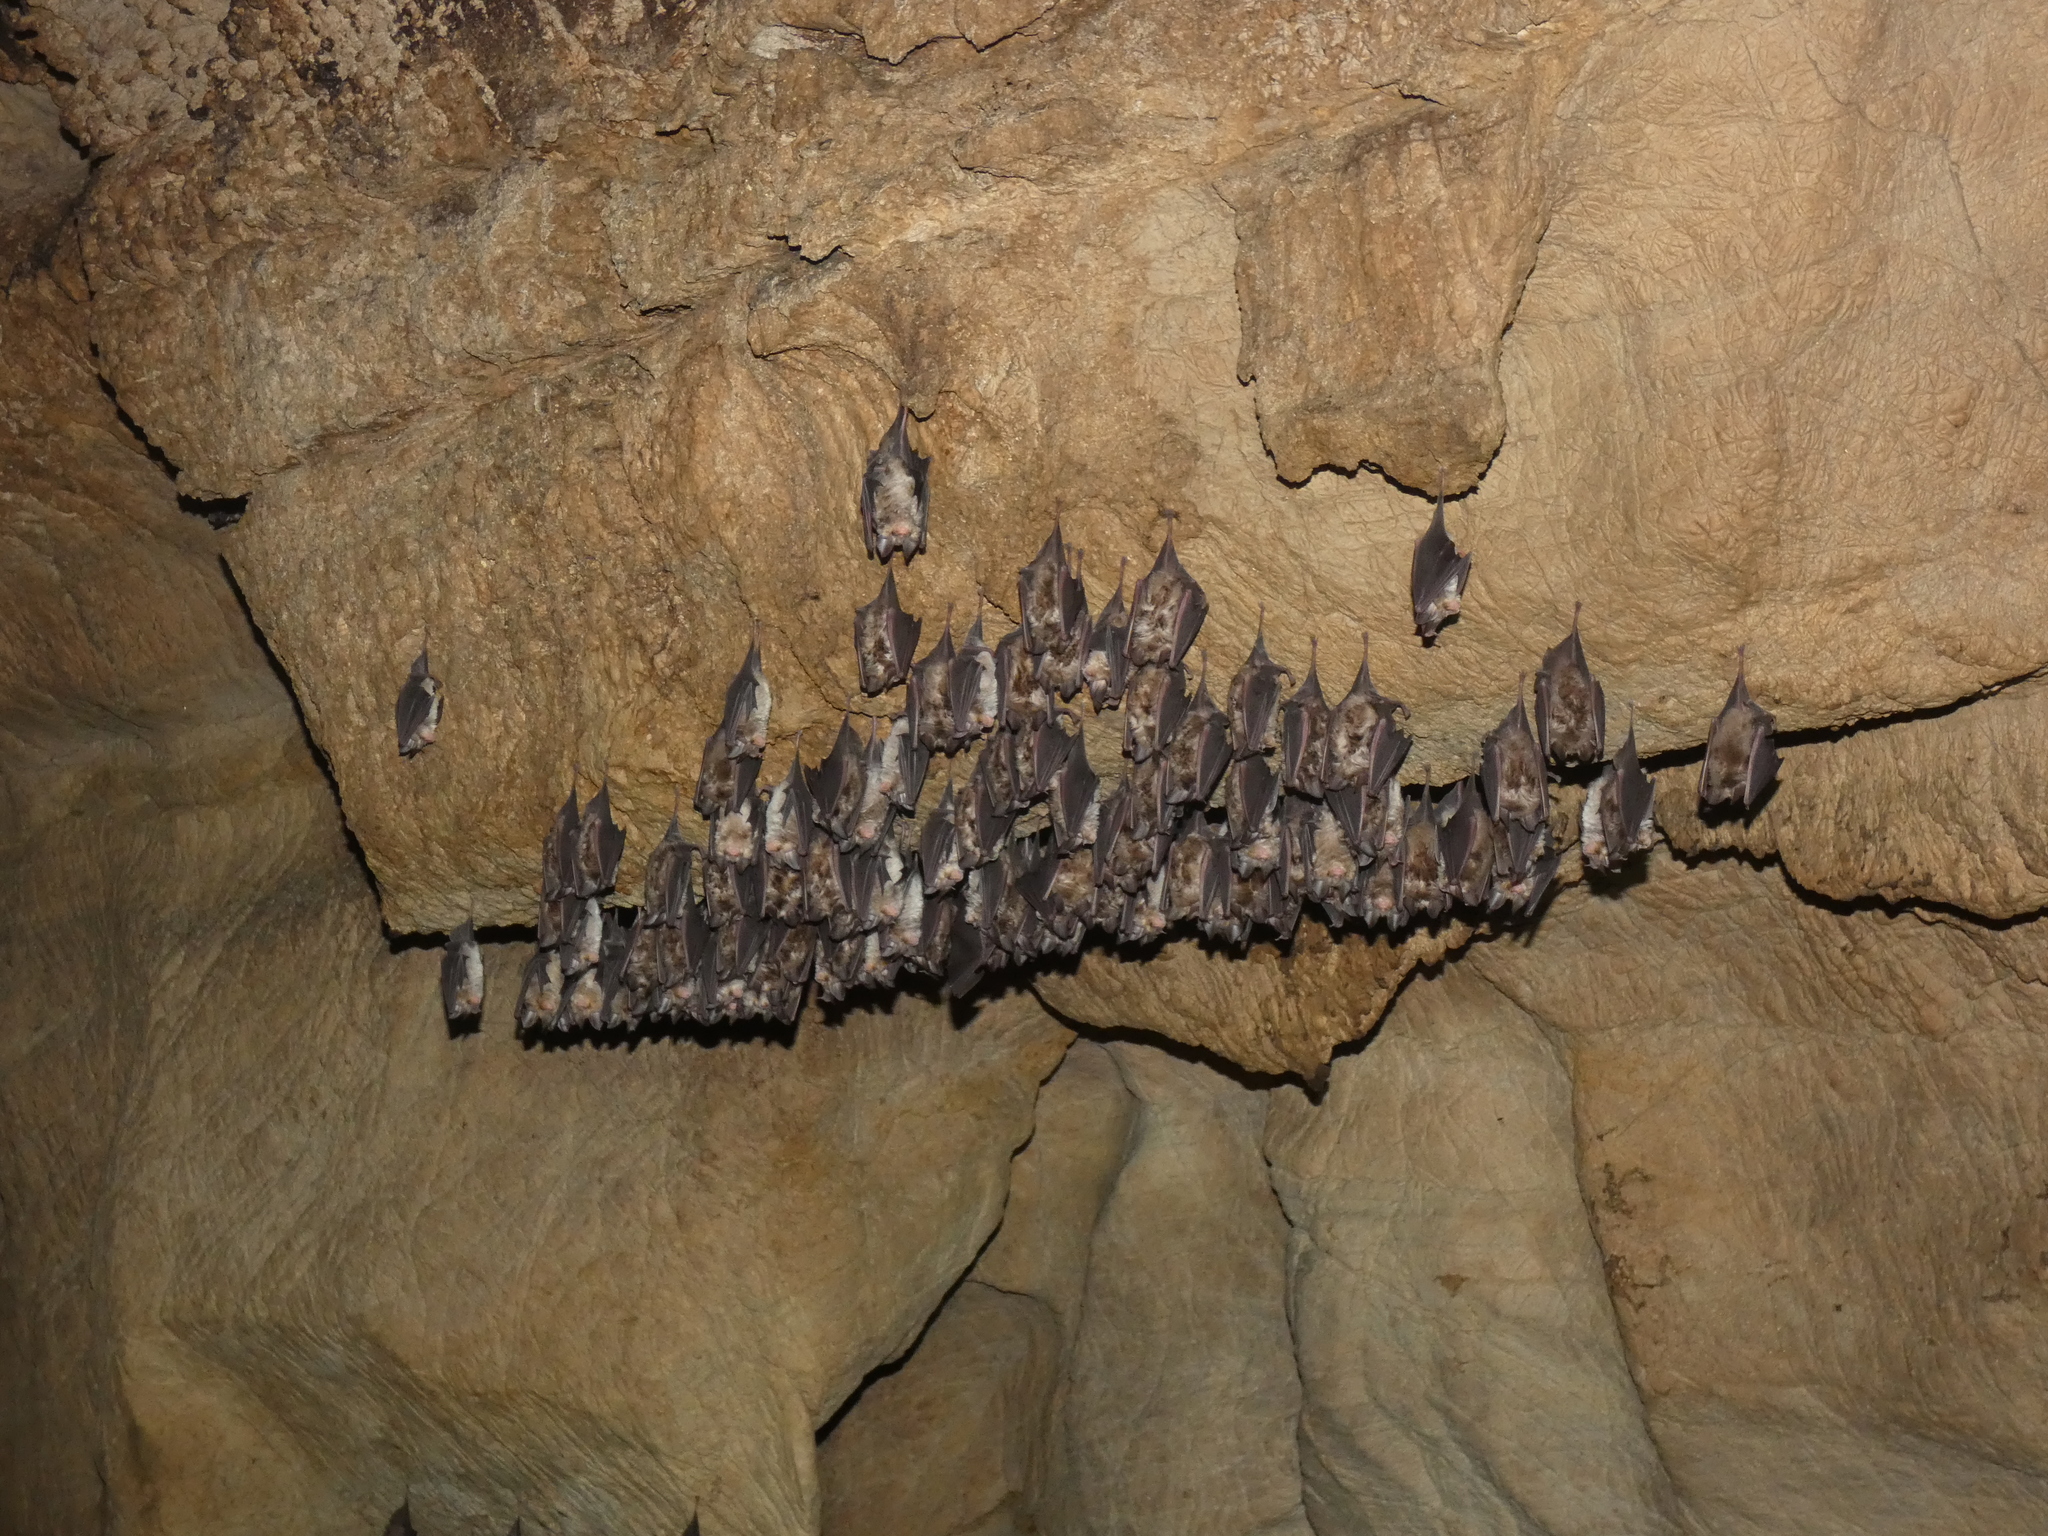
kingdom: Animalia
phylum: Chordata
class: Mammalia
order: Chiroptera
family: Rhinolophidae
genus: Rhinolophus
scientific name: Rhinolophus euryale
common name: Mediterranean horseshoe bat
